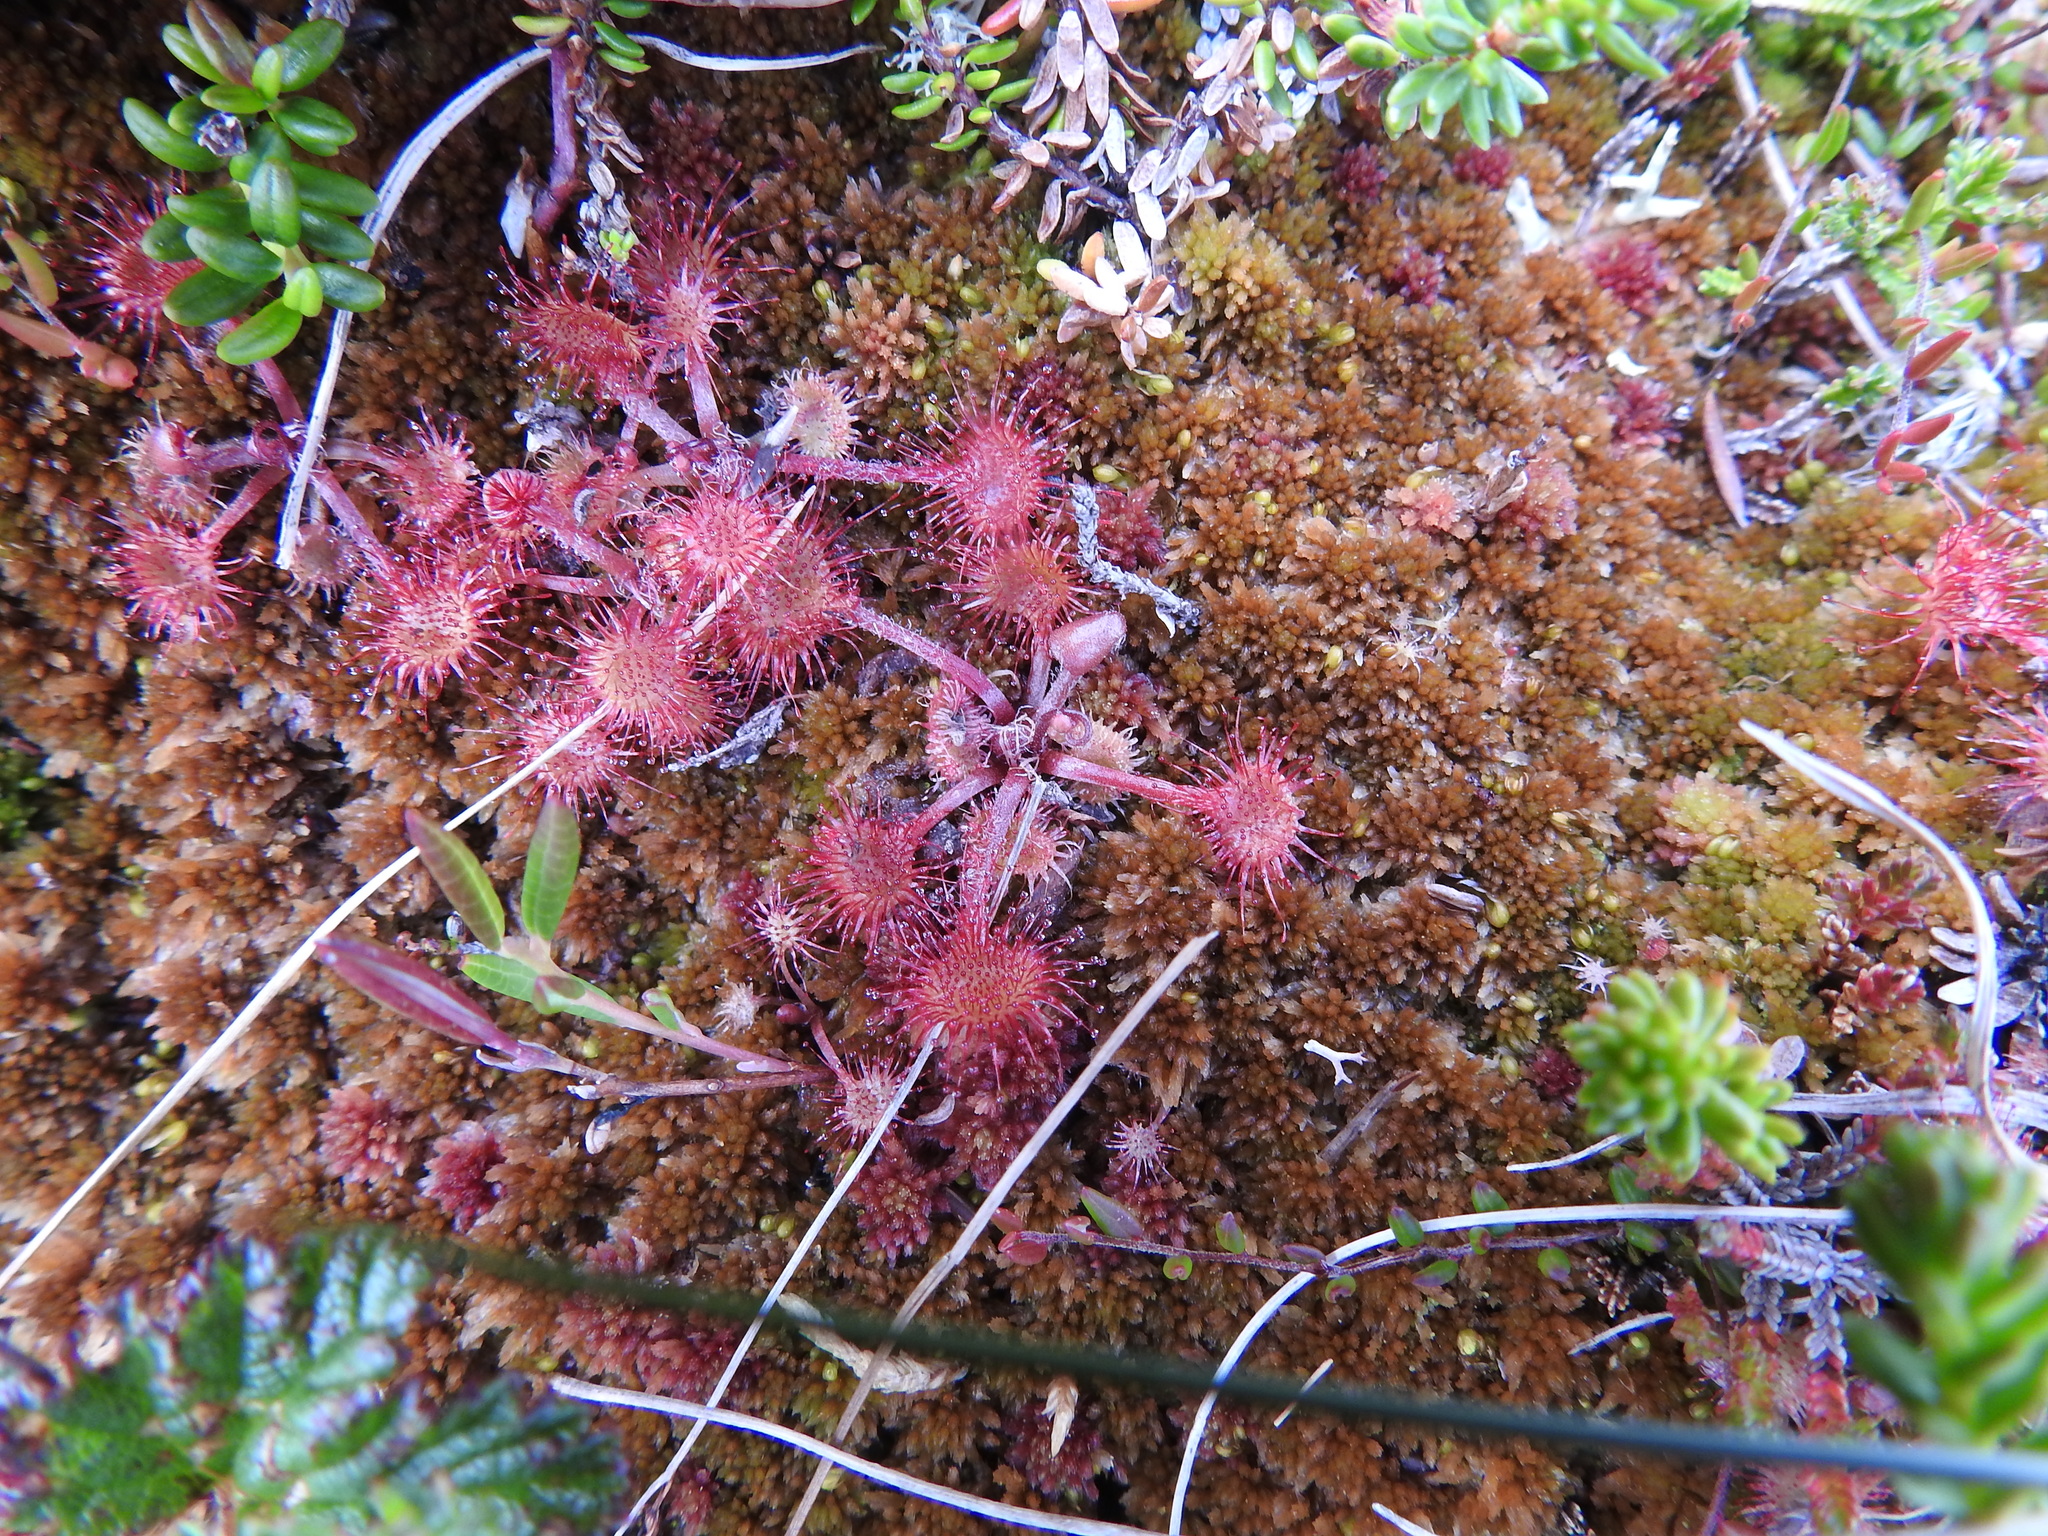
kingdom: Plantae
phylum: Tracheophyta
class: Magnoliopsida
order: Caryophyllales
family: Droseraceae
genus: Drosera
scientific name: Drosera rotundifolia
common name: Round-leaved sundew
